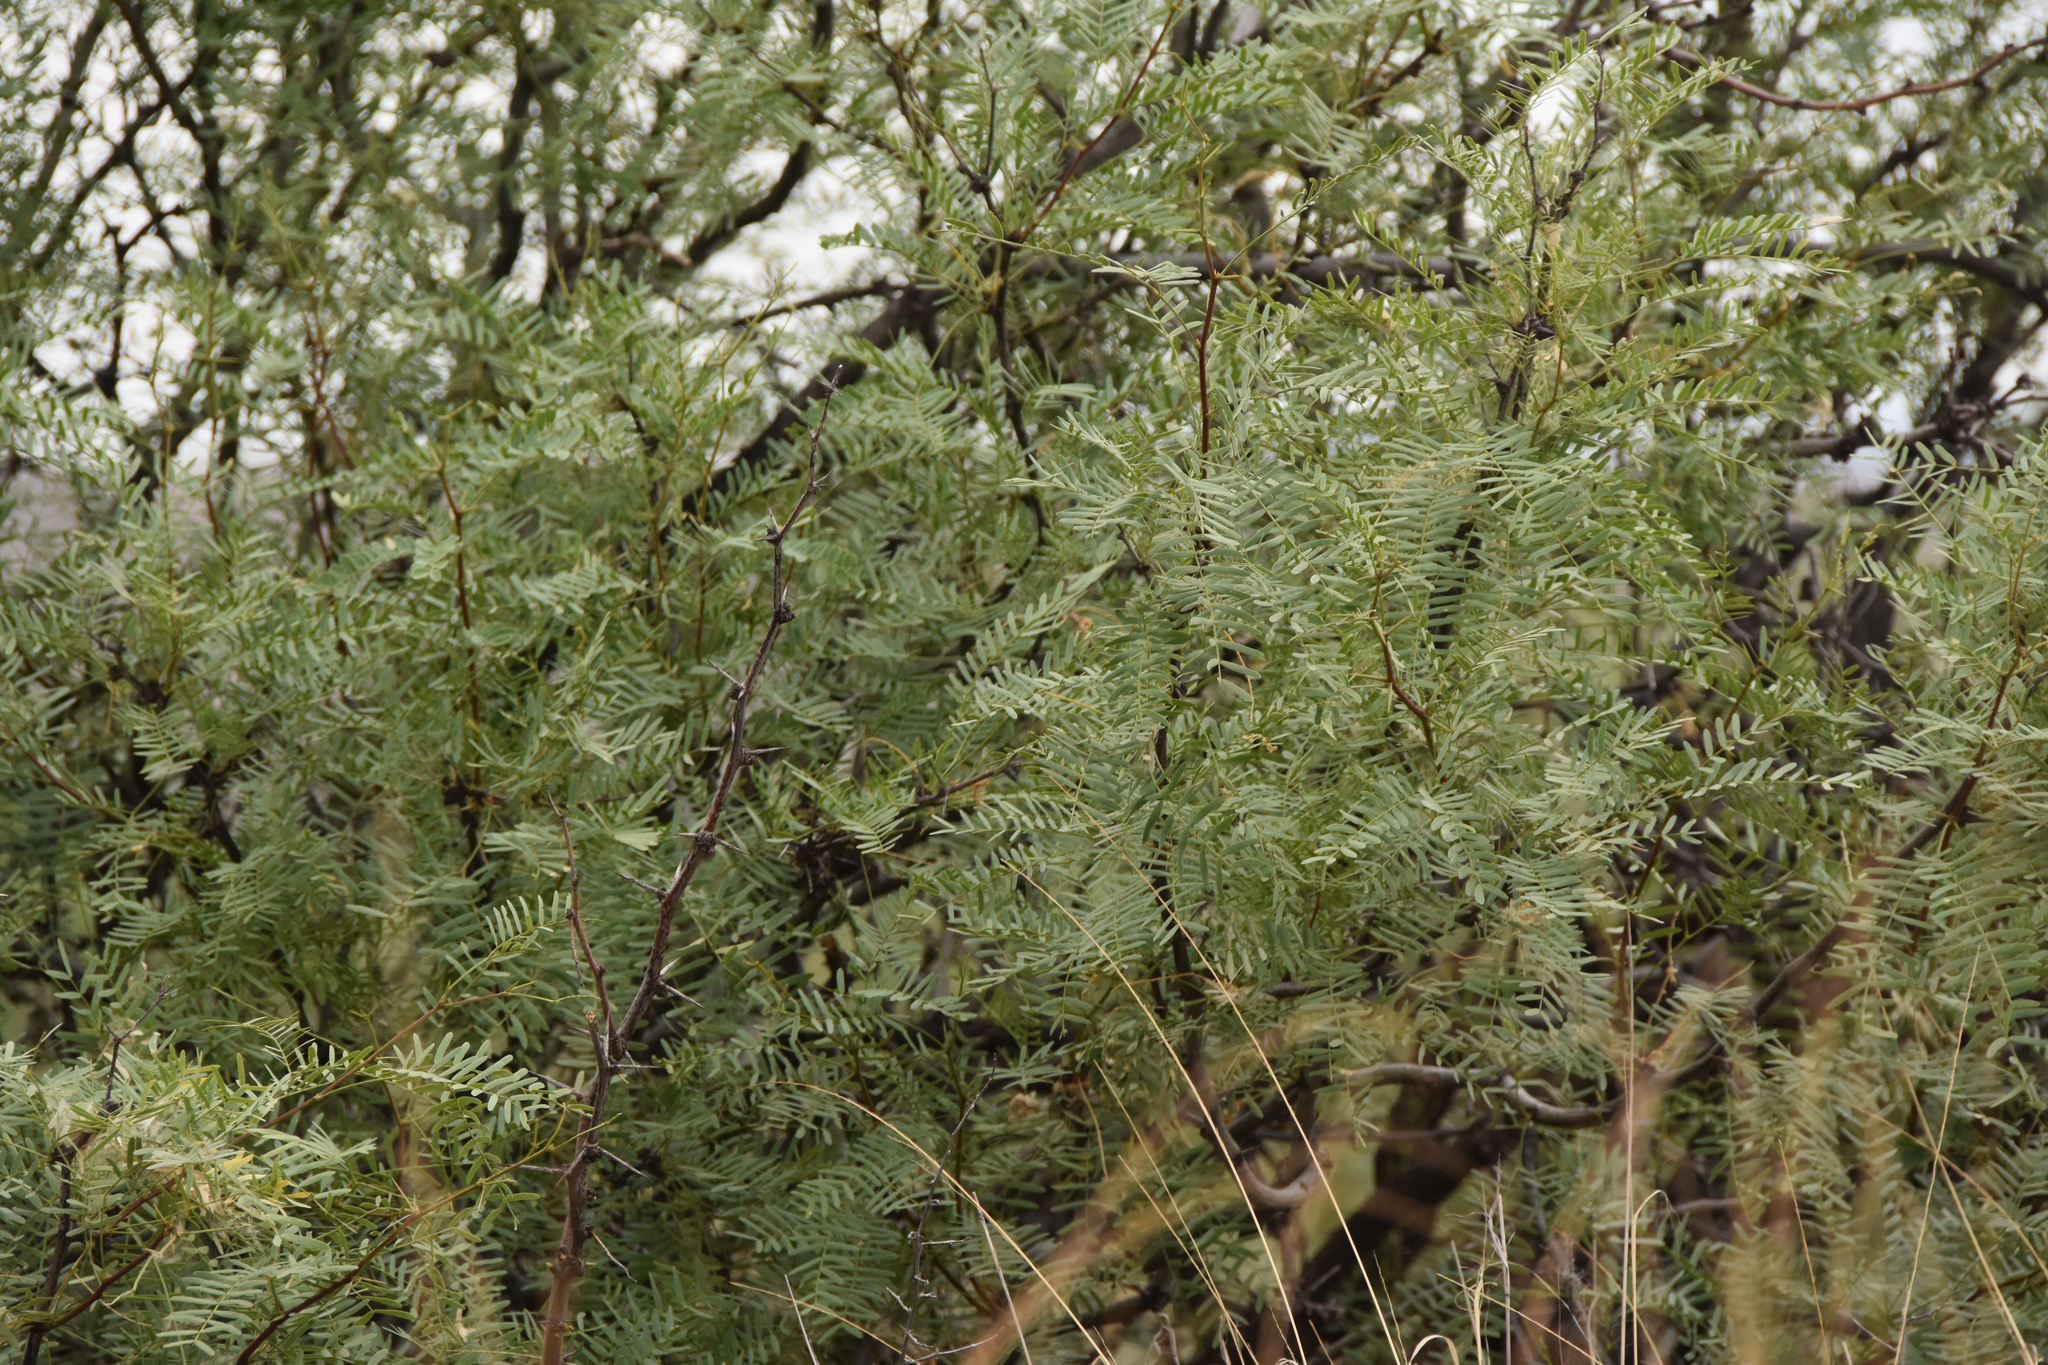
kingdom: Plantae
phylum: Tracheophyta
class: Magnoliopsida
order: Fabales
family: Fabaceae
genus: Prosopis
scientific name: Prosopis glandulosa
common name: Honey mesquite
